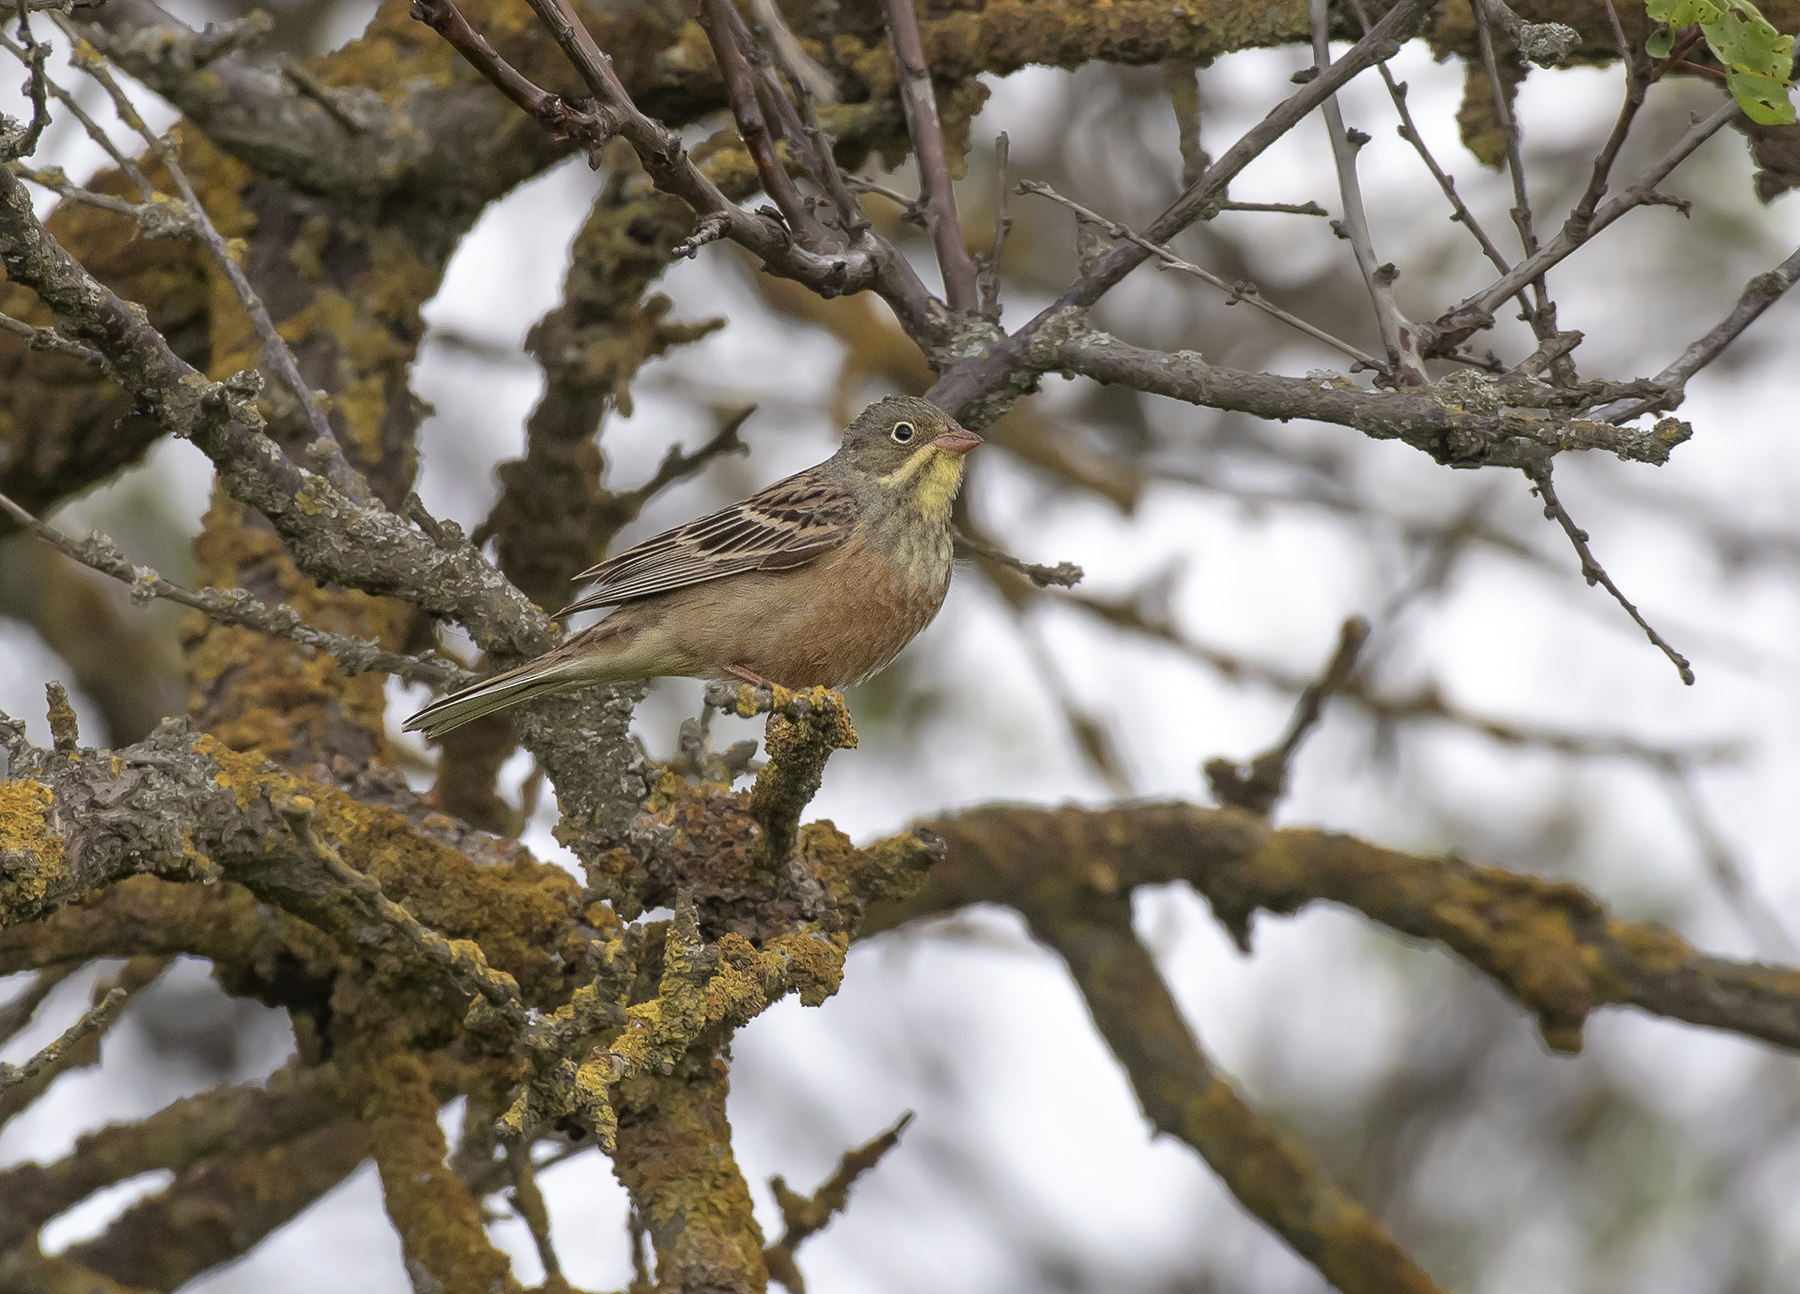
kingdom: Animalia
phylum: Chordata
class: Aves
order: Passeriformes
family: Emberizidae
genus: Emberiza
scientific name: Emberiza hortulana
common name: Ortolan bunting
